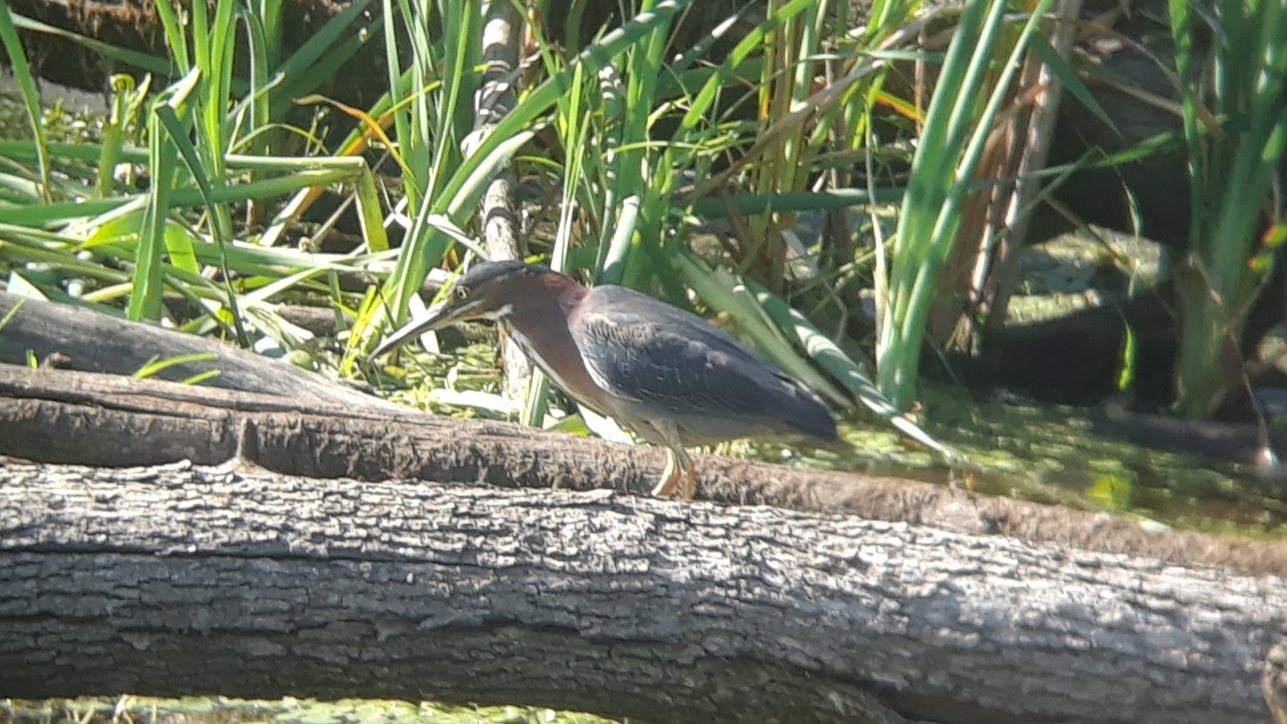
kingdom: Animalia
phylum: Chordata
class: Aves
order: Pelecaniformes
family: Ardeidae
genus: Butorides
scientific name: Butorides virescens
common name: Green heron
